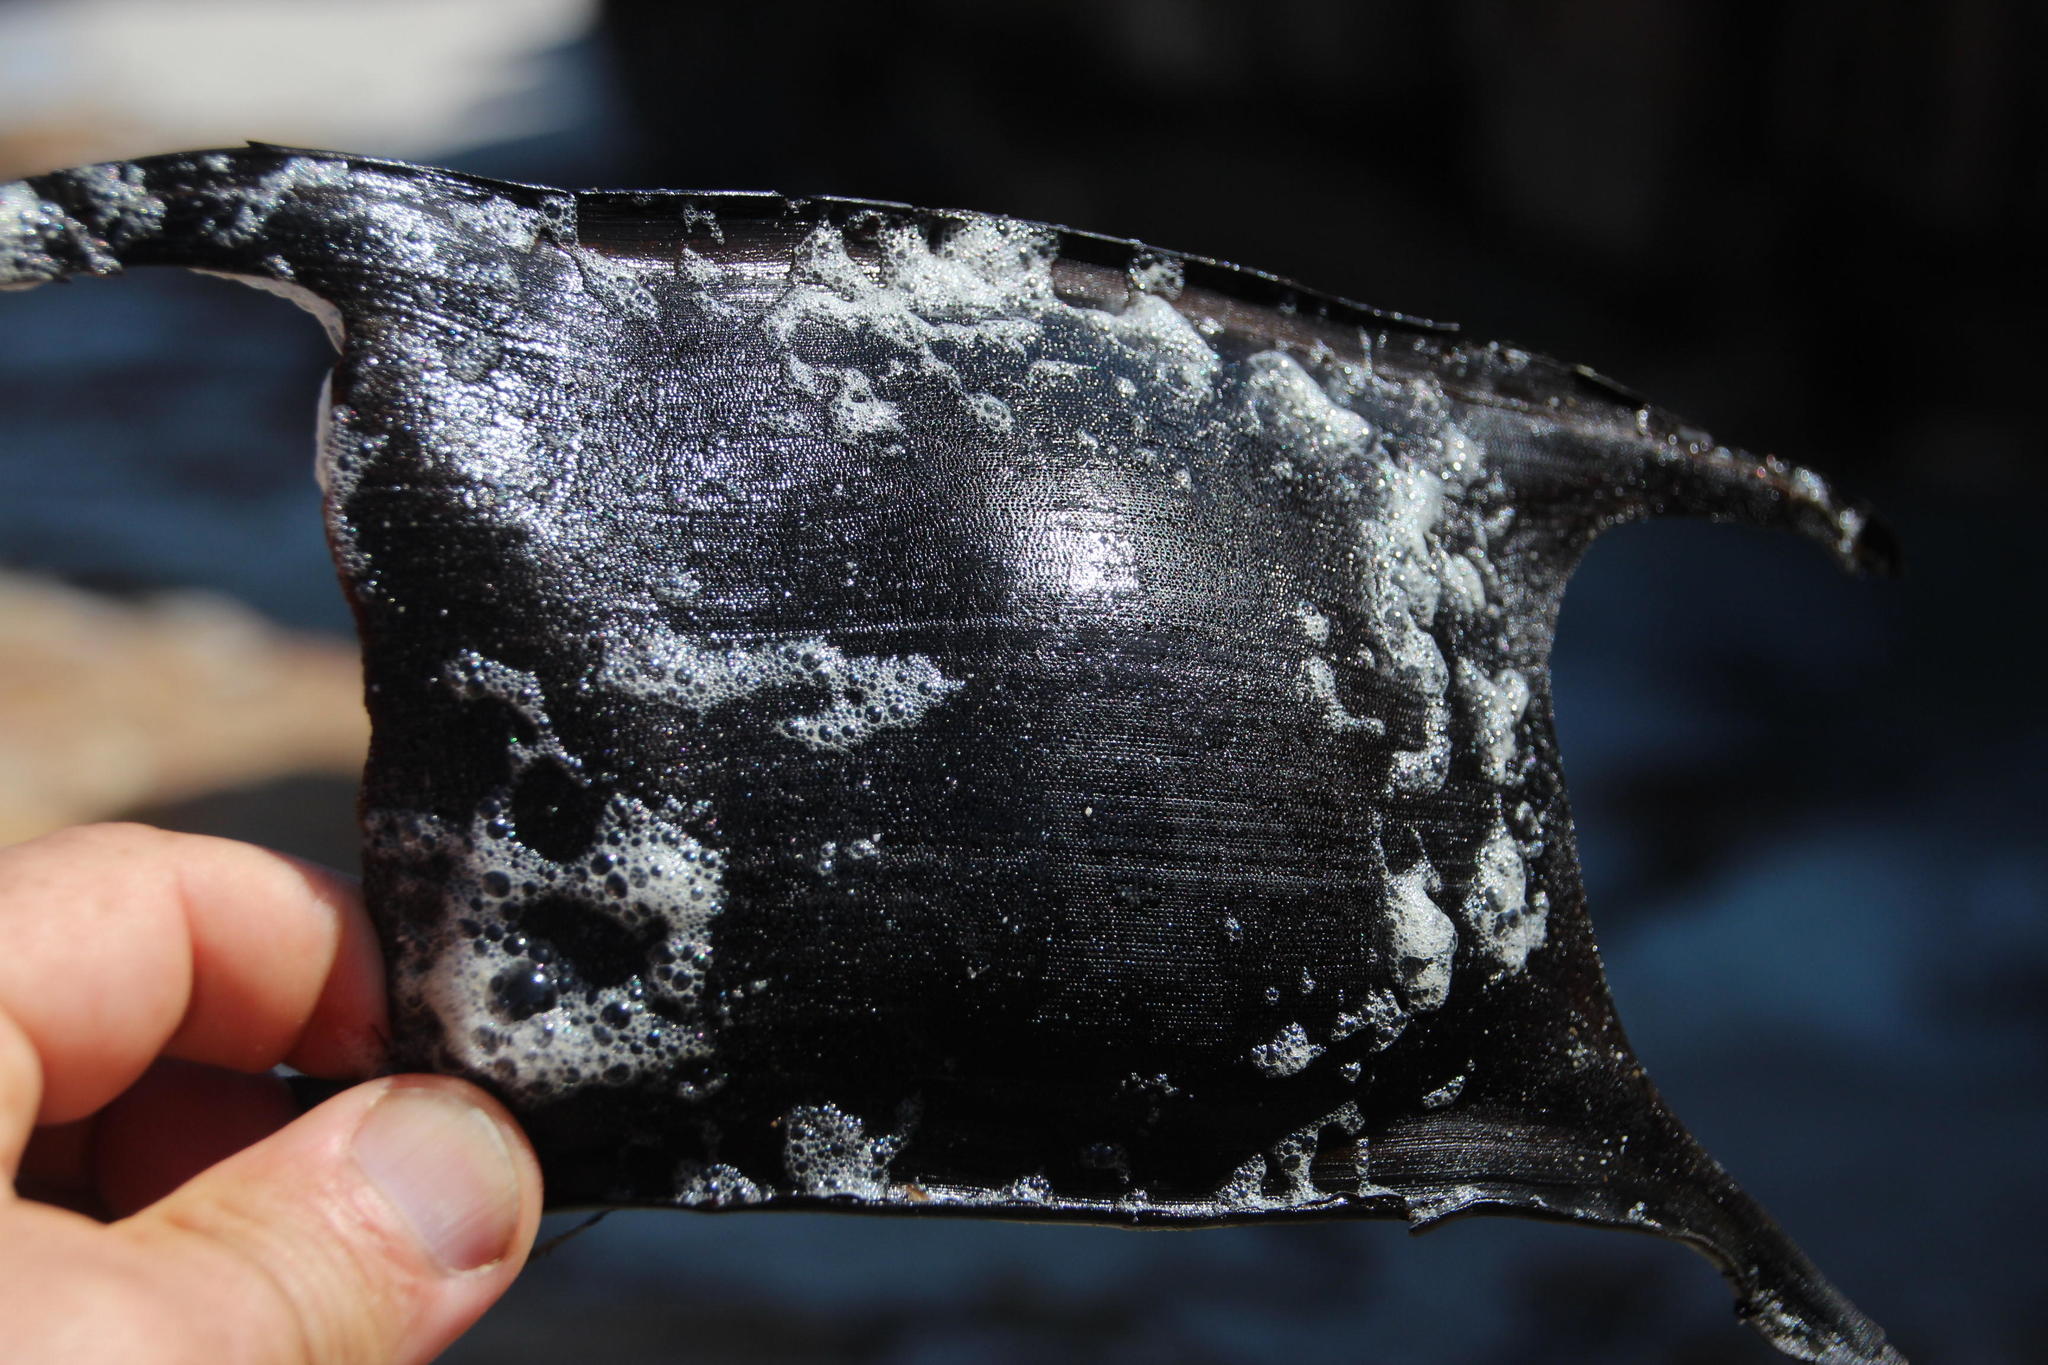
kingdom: Animalia
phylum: Chordata
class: Elasmobranchii
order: Rajiformes
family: Rajidae
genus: Rostroraja
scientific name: Rostroraja alba
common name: White skate
